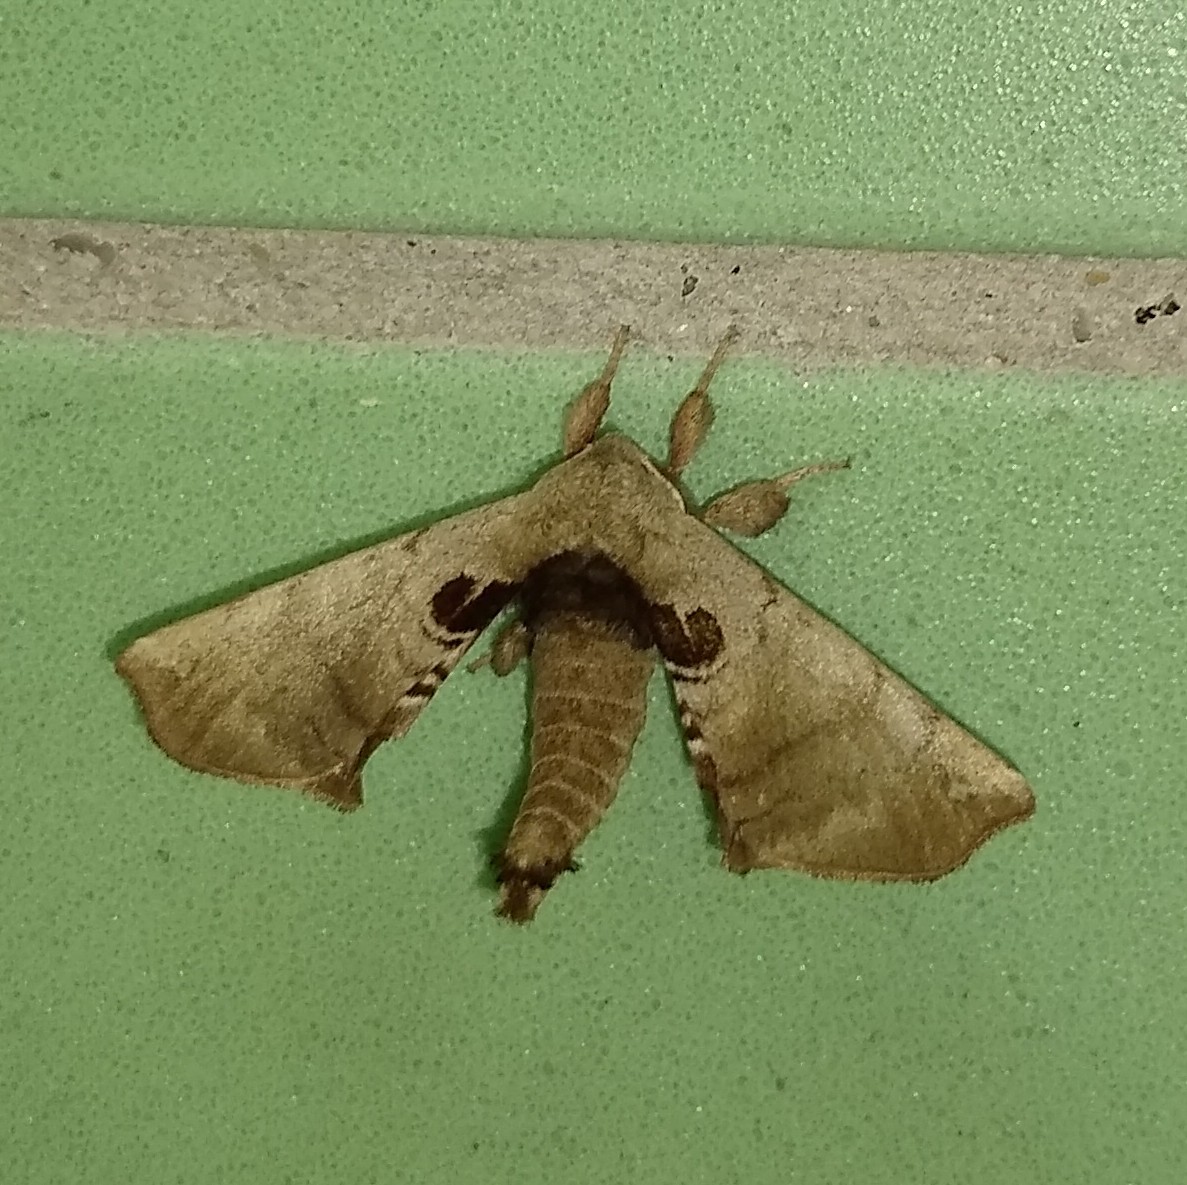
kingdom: Animalia
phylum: Arthropoda
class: Insecta
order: Lepidoptera
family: Apatelodidae
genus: Hygrochroa
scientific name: Hygrochroa Apatelodes torrefacta
